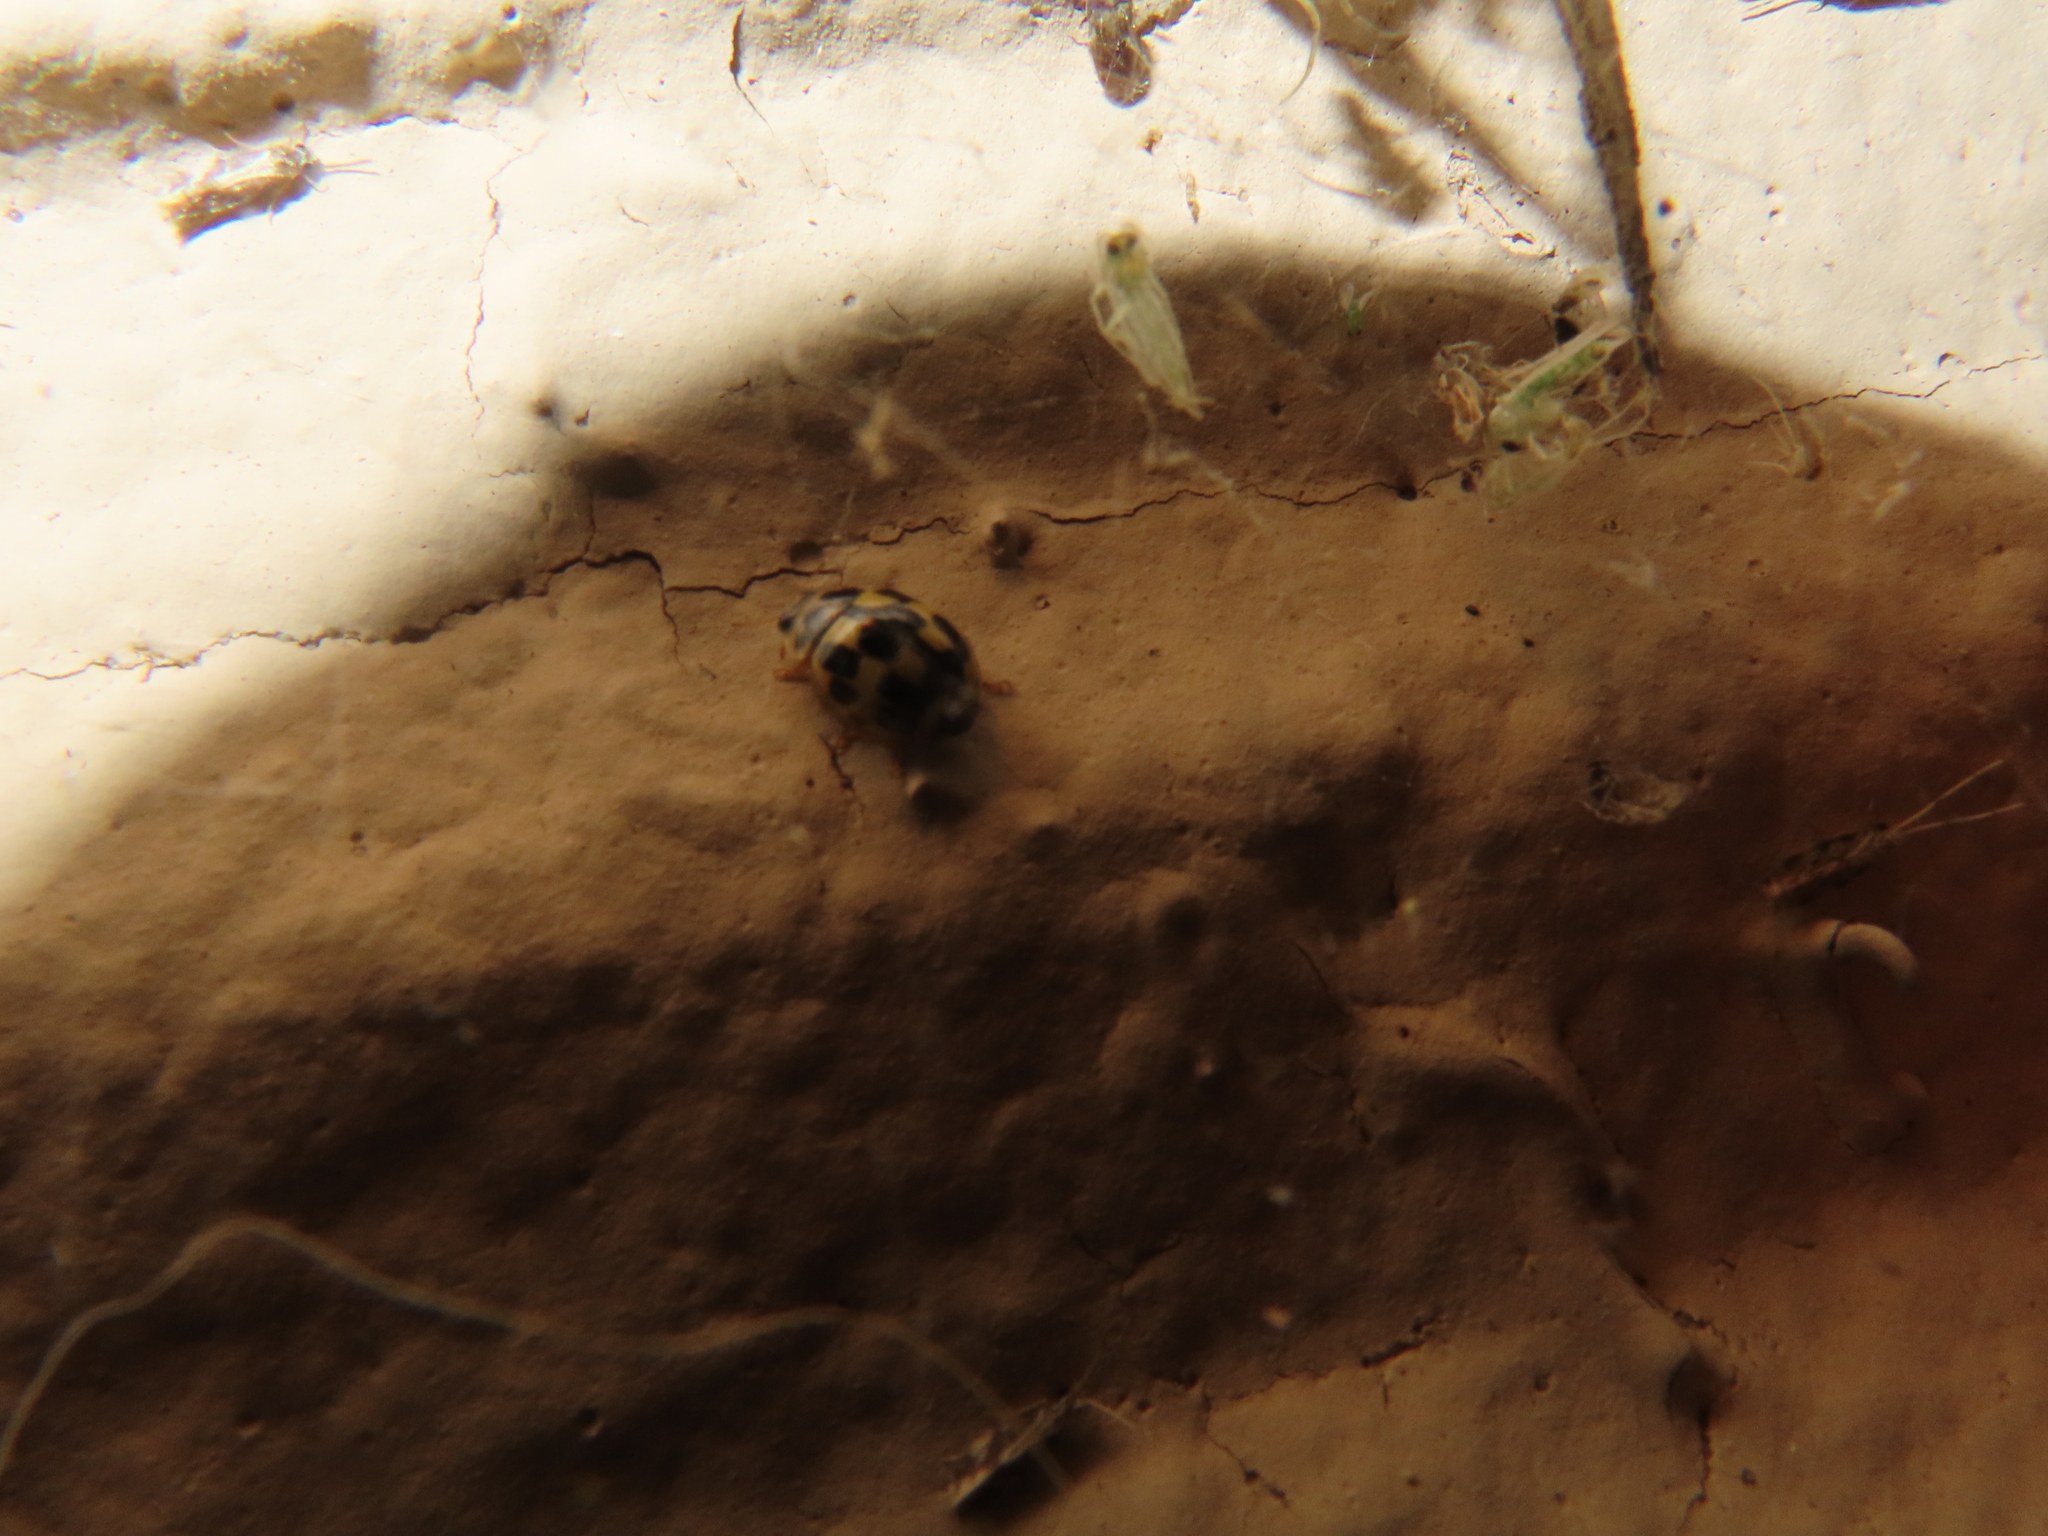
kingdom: Animalia
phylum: Arthropoda
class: Insecta
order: Coleoptera
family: Coccinellidae
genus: Propylaea
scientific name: Propylaea quatuordecimpunctata
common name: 14-spotted ladybird beetle
